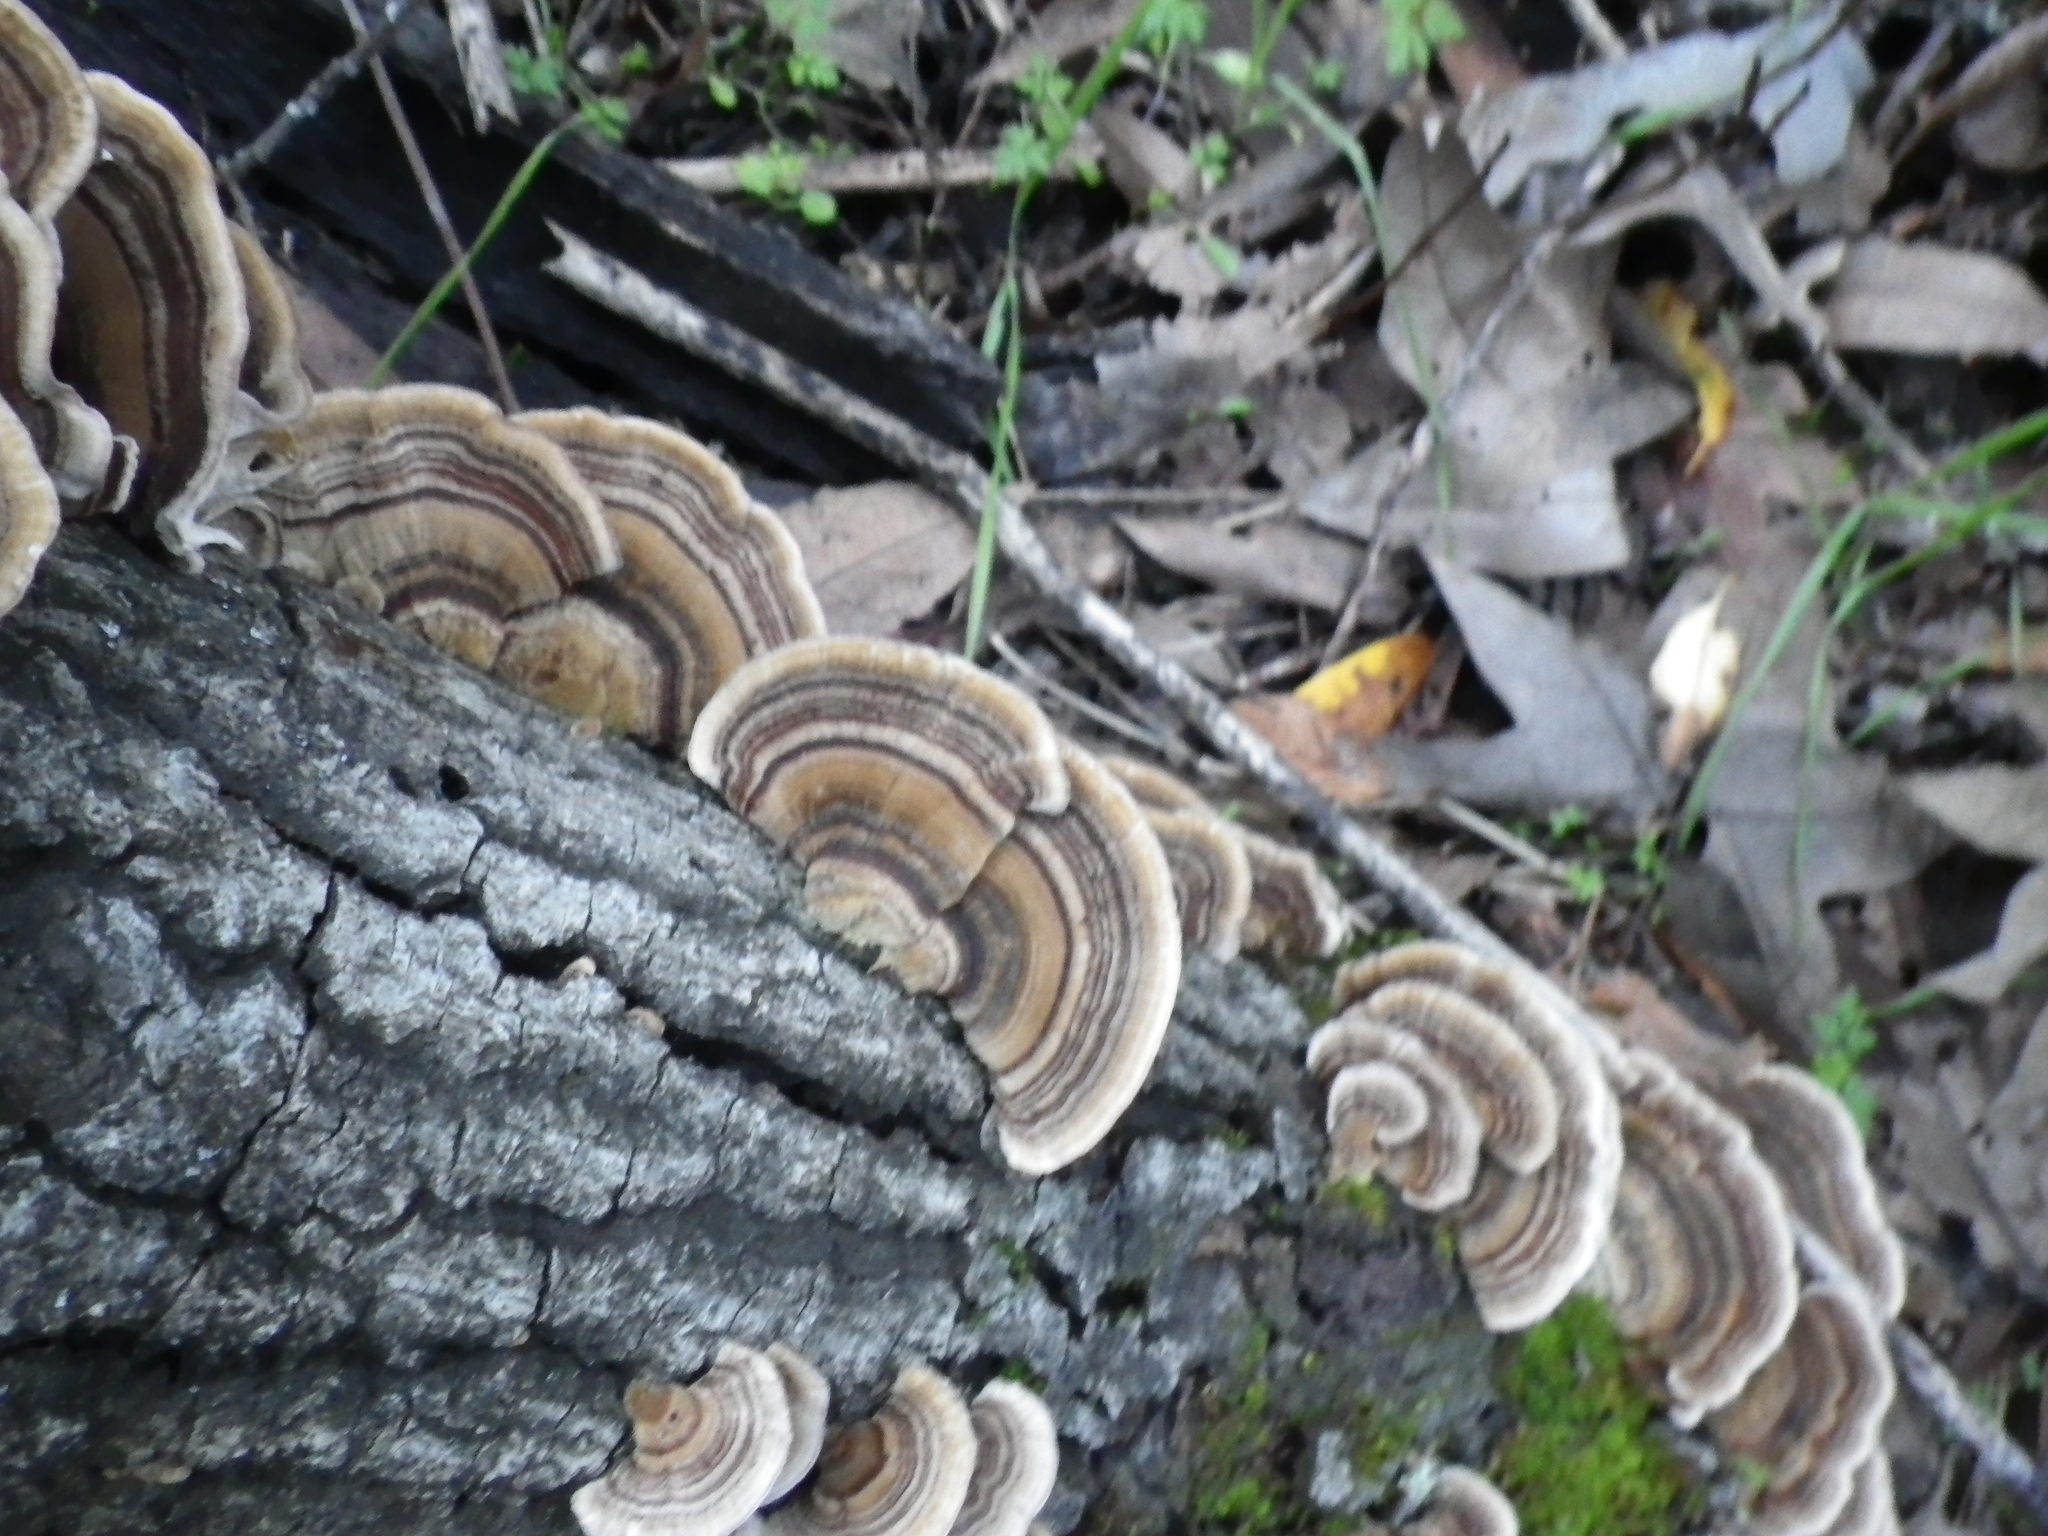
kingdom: Fungi
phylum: Basidiomycota
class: Agaricomycetes
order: Polyporales
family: Polyporaceae
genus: Trametes
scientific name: Trametes versicolor
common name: Turkeytail
